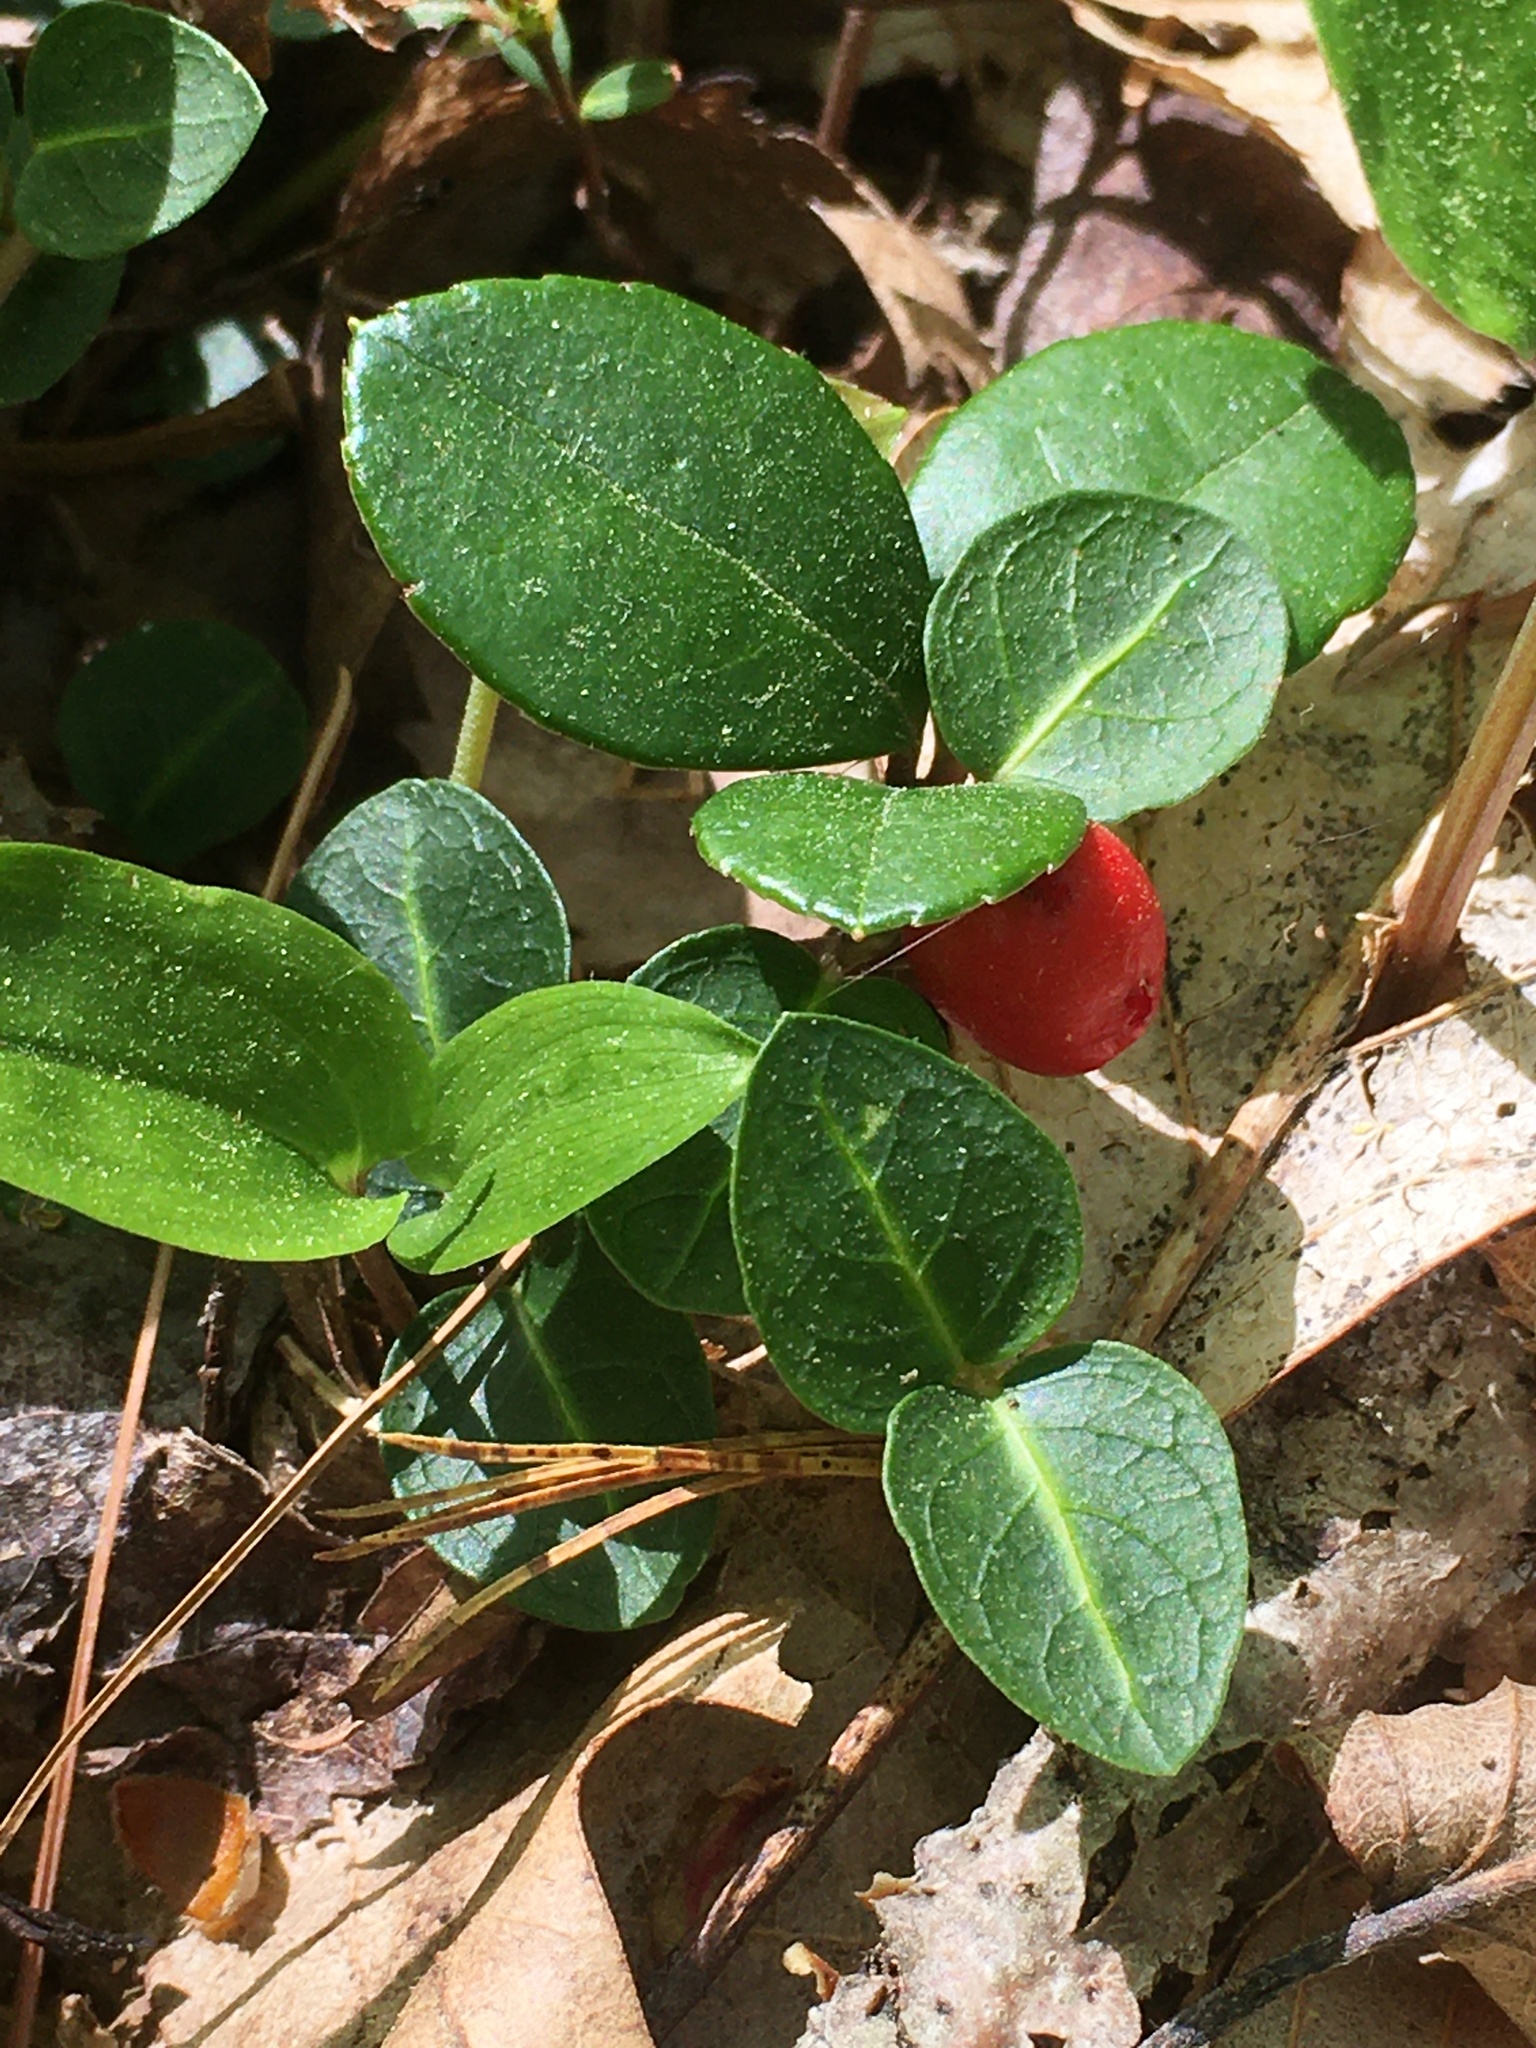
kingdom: Plantae
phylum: Tracheophyta
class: Magnoliopsida
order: Gentianales
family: Rubiaceae
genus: Mitchella
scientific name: Mitchella repens
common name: Partridge-berry
